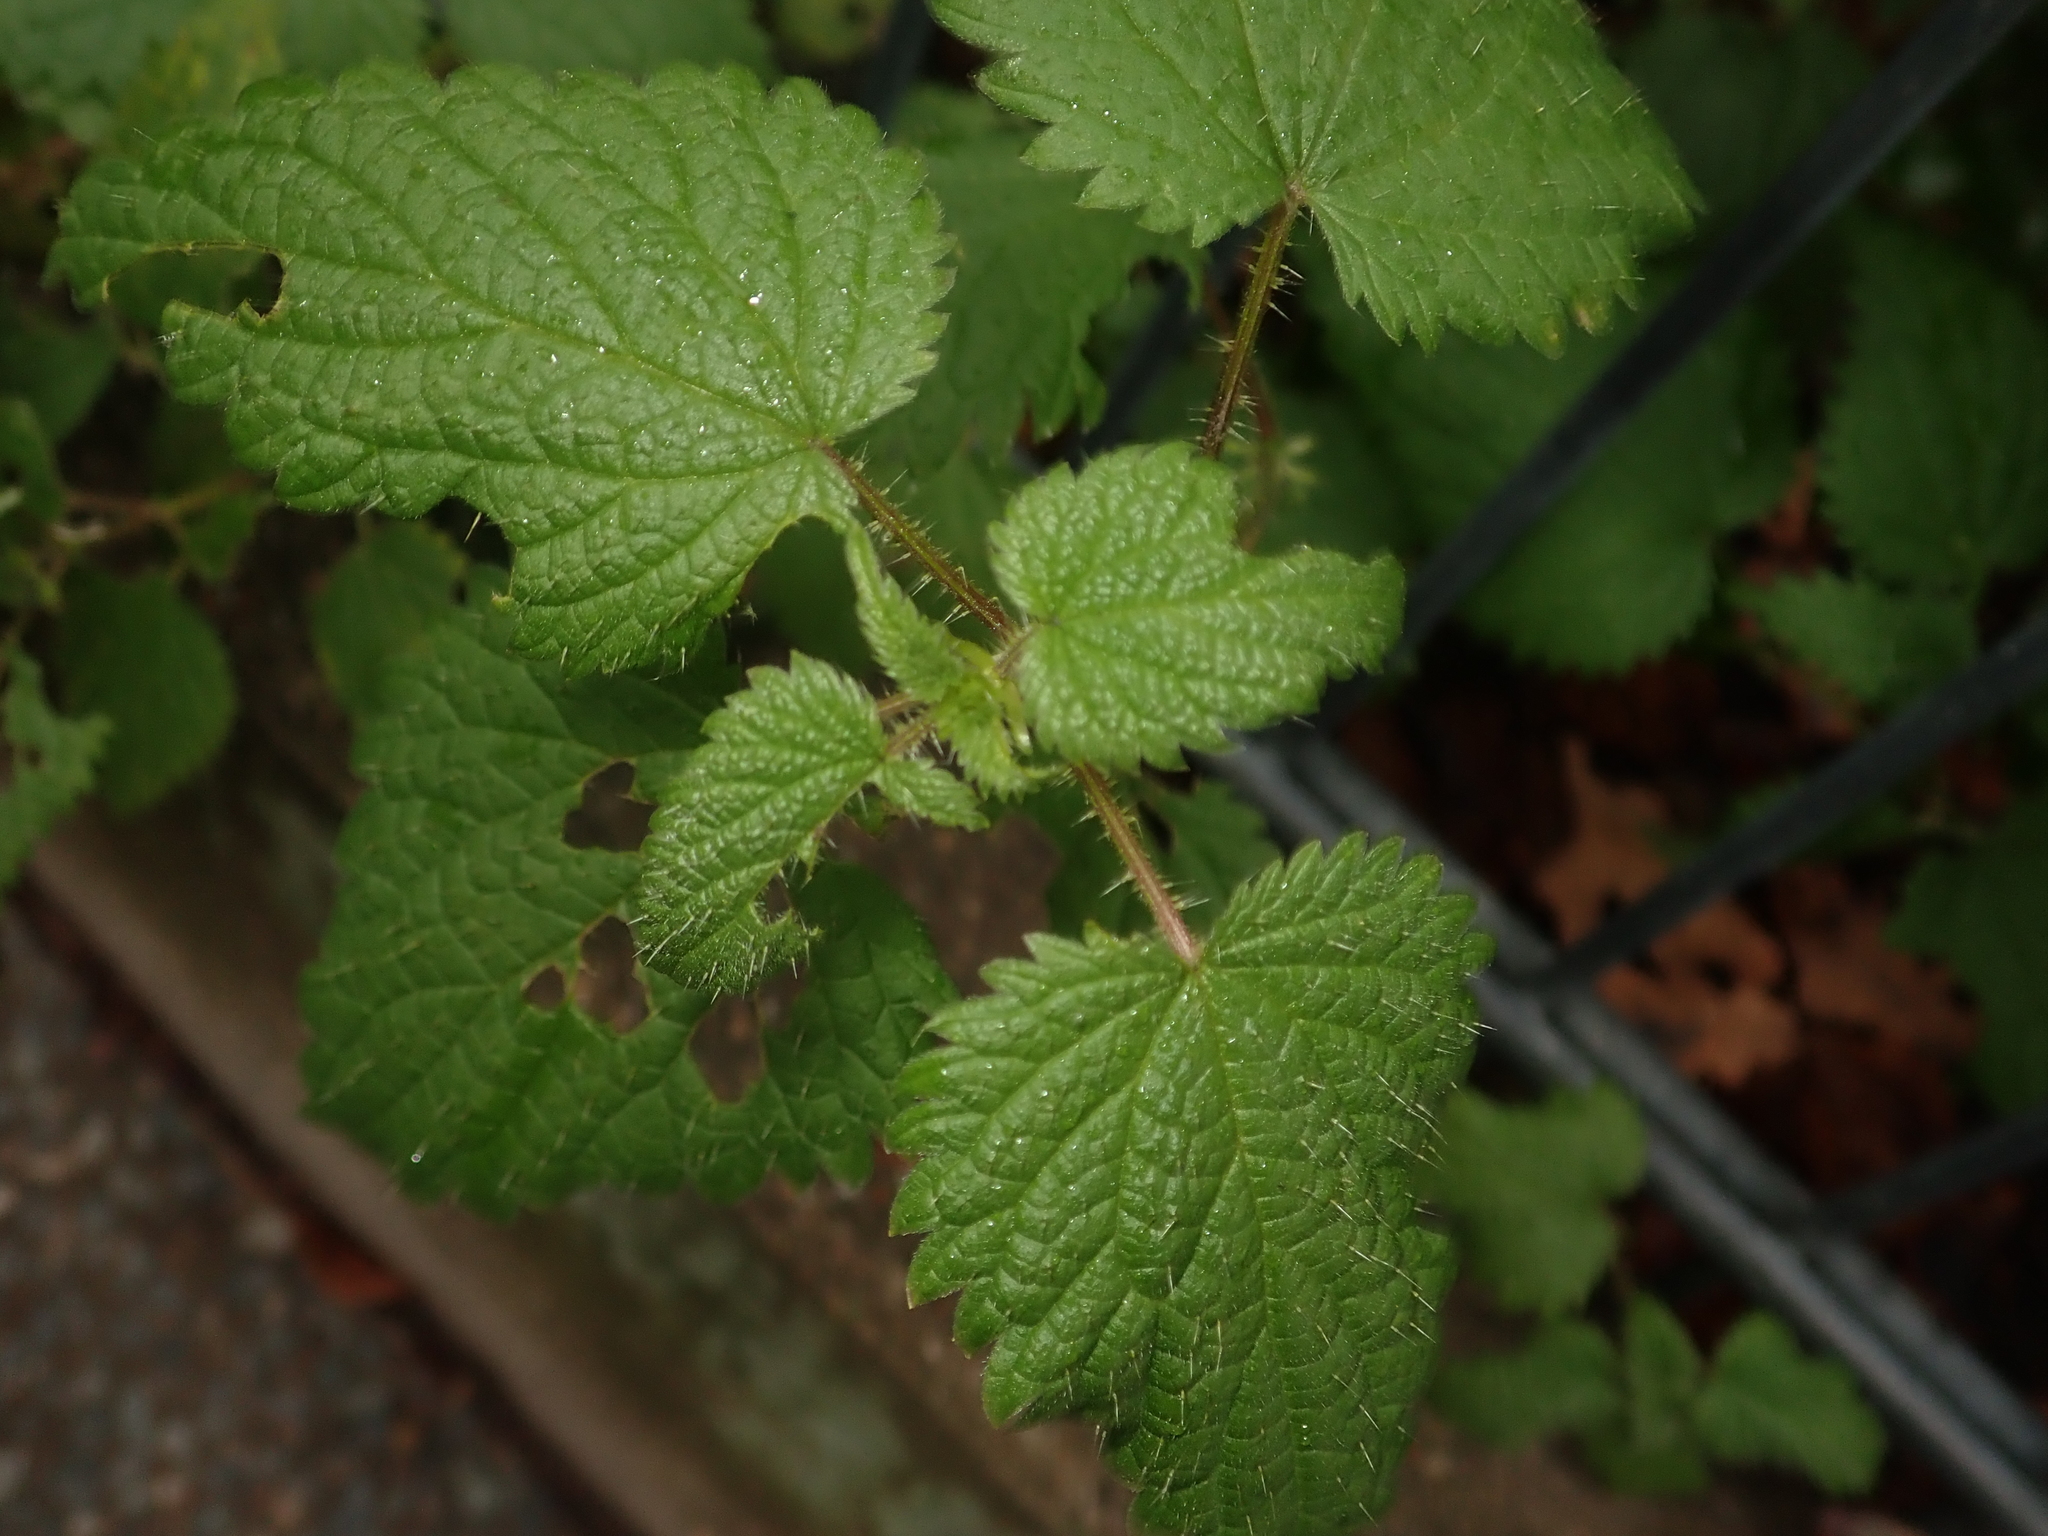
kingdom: Plantae
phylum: Tracheophyta
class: Magnoliopsida
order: Rosales
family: Urticaceae
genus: Urtica
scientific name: Urtica dioica
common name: Common nettle
